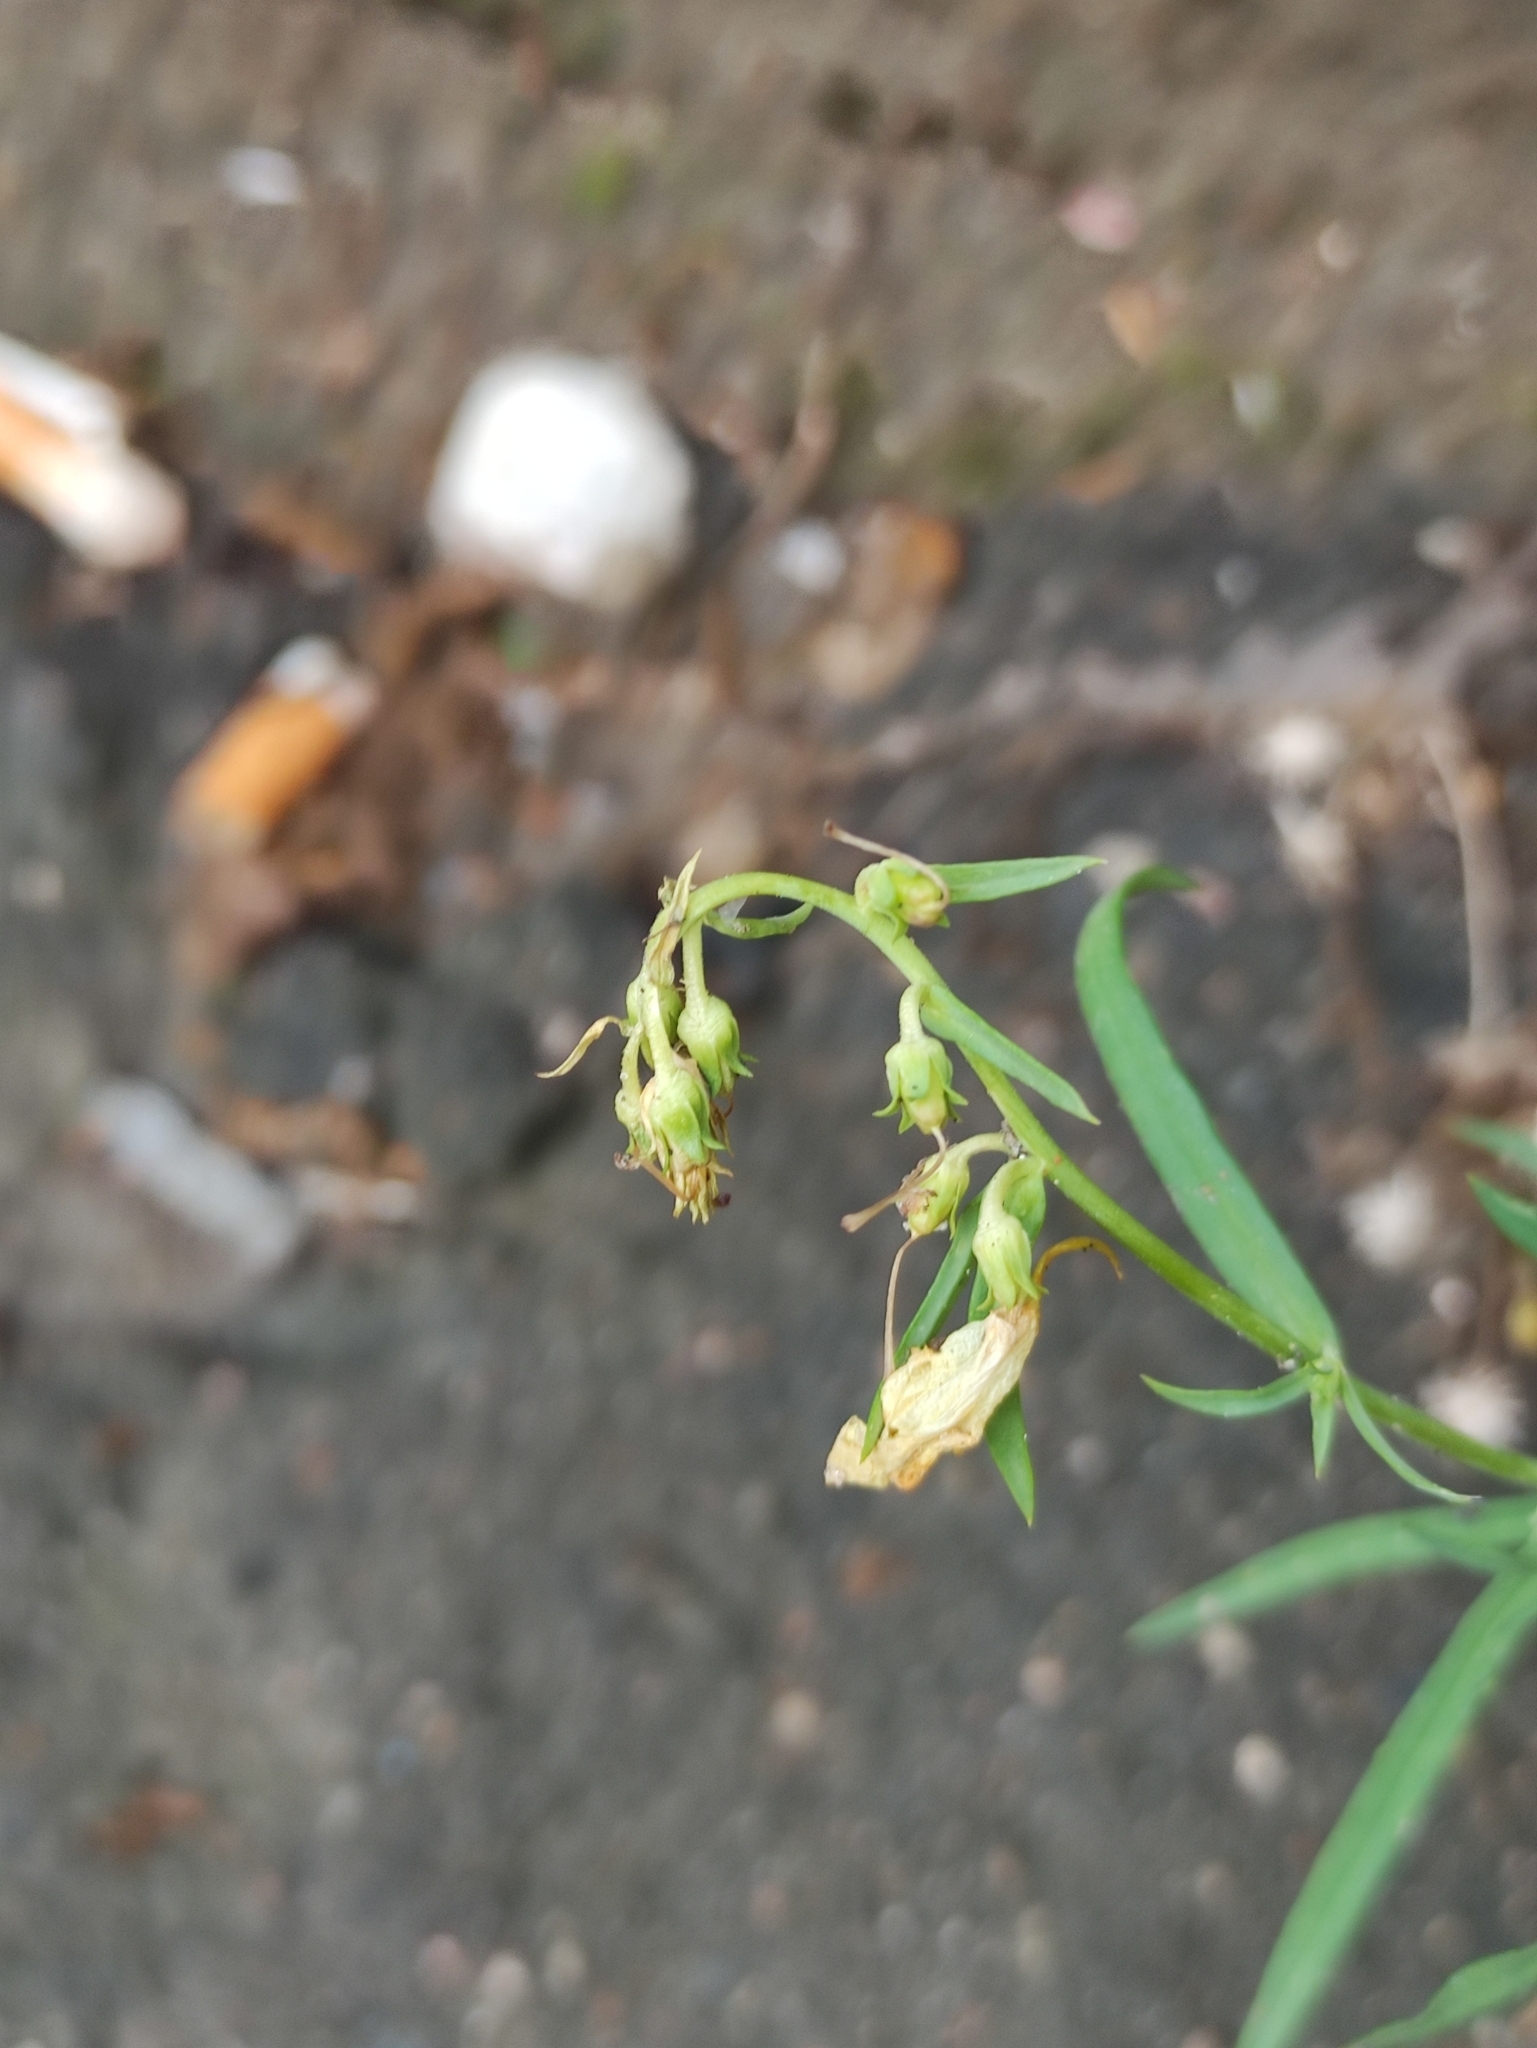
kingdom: Plantae
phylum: Tracheophyta
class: Magnoliopsida
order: Lamiales
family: Plantaginaceae
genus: Linaria
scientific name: Linaria vulgaris
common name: Butter and eggs
